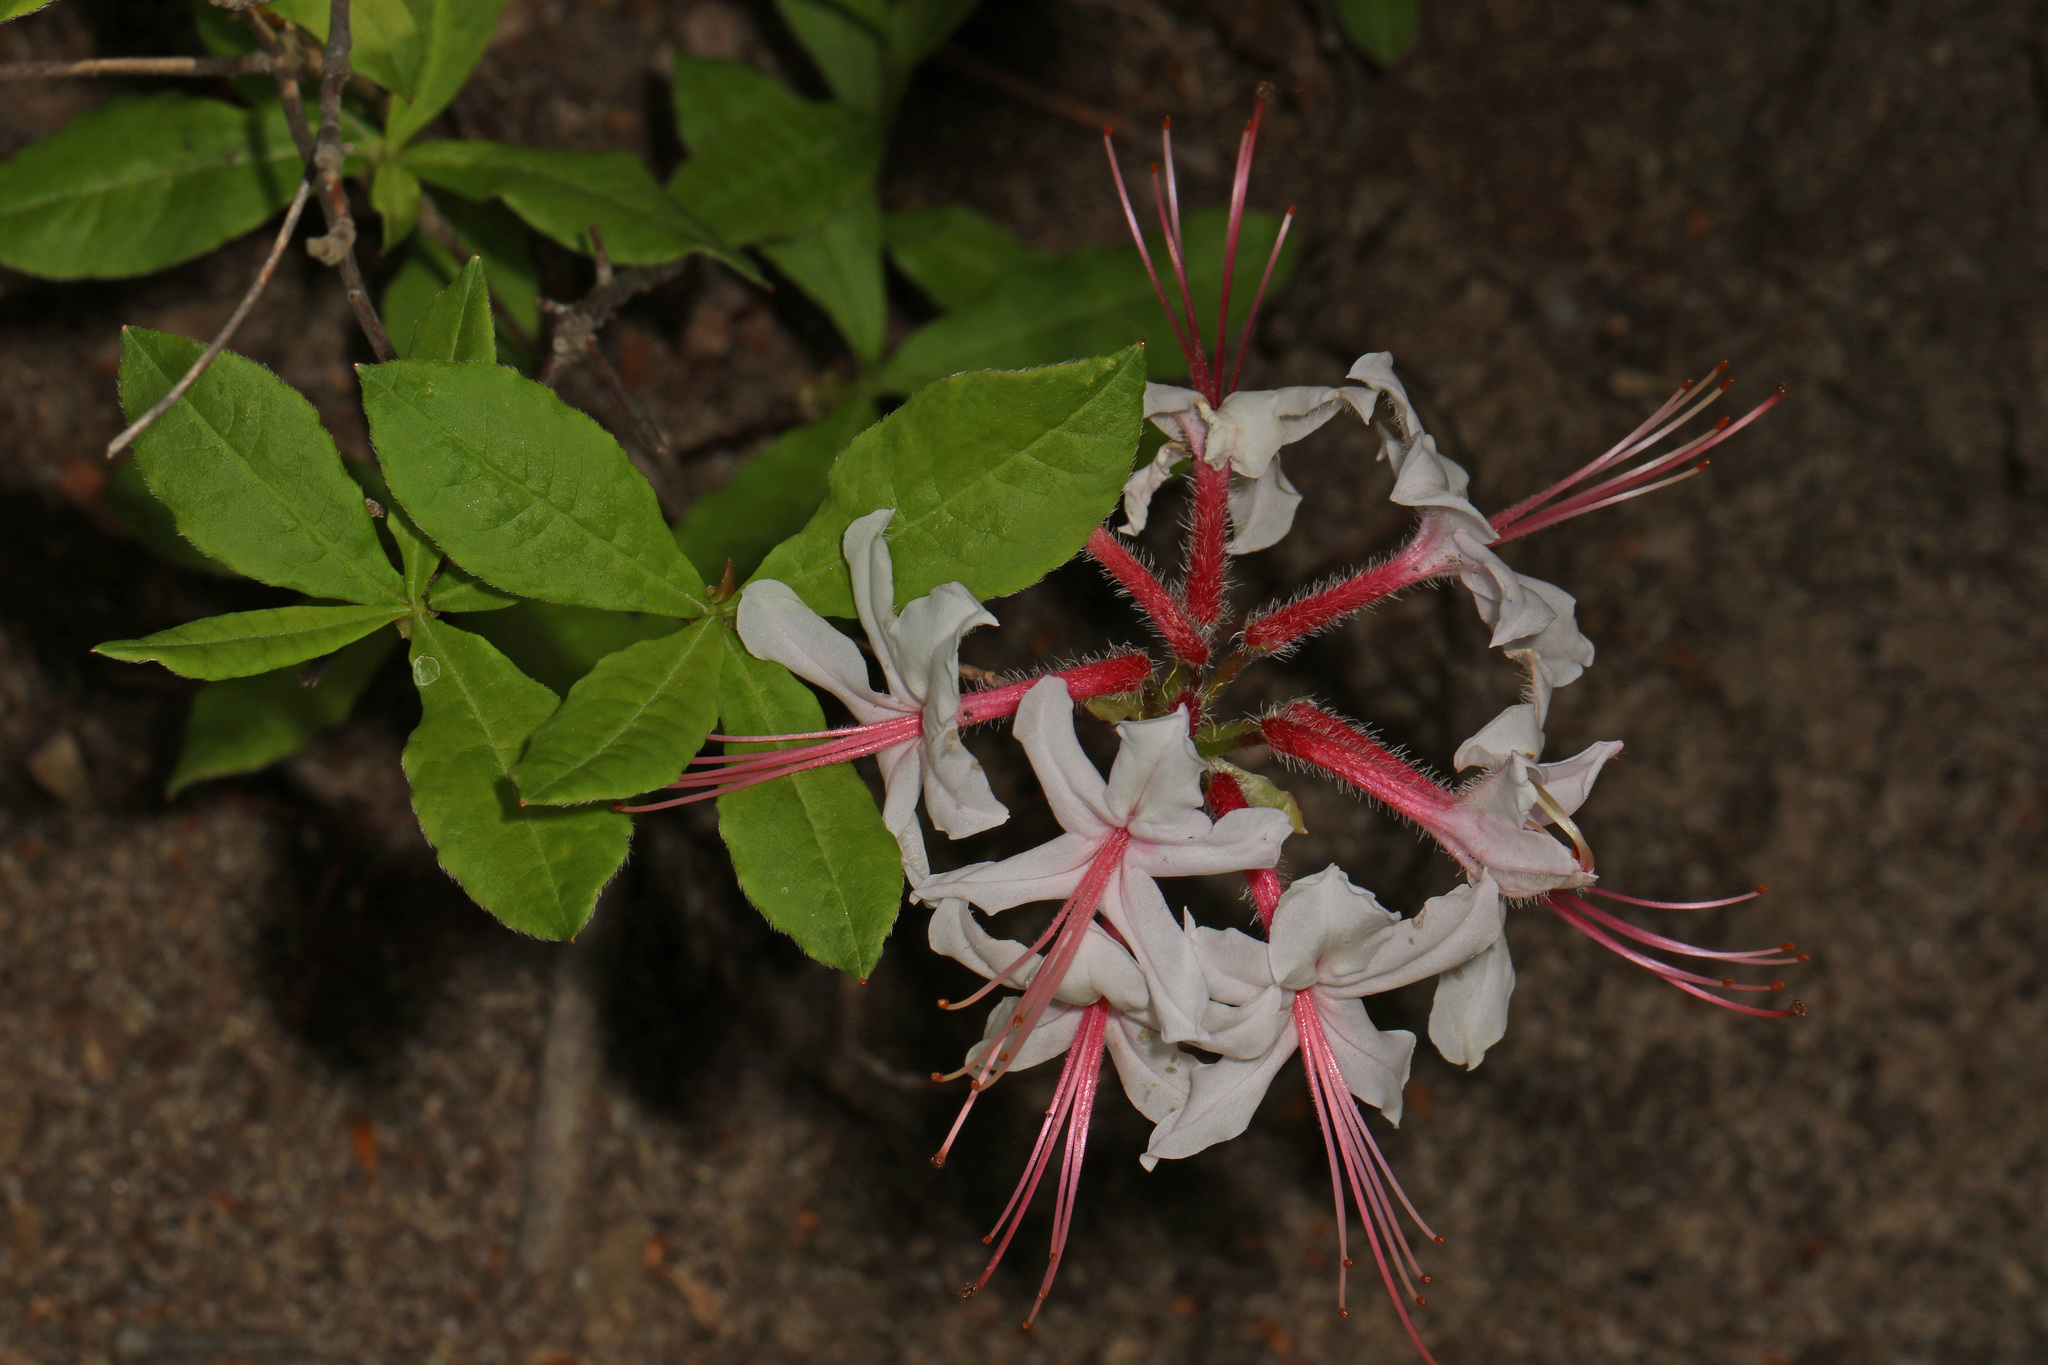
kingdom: Plantae
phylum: Tracheophyta
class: Magnoliopsida
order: Ericales
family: Ericaceae
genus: Rhododendron
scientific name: Rhododendron periclymenoides
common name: Election-pink
